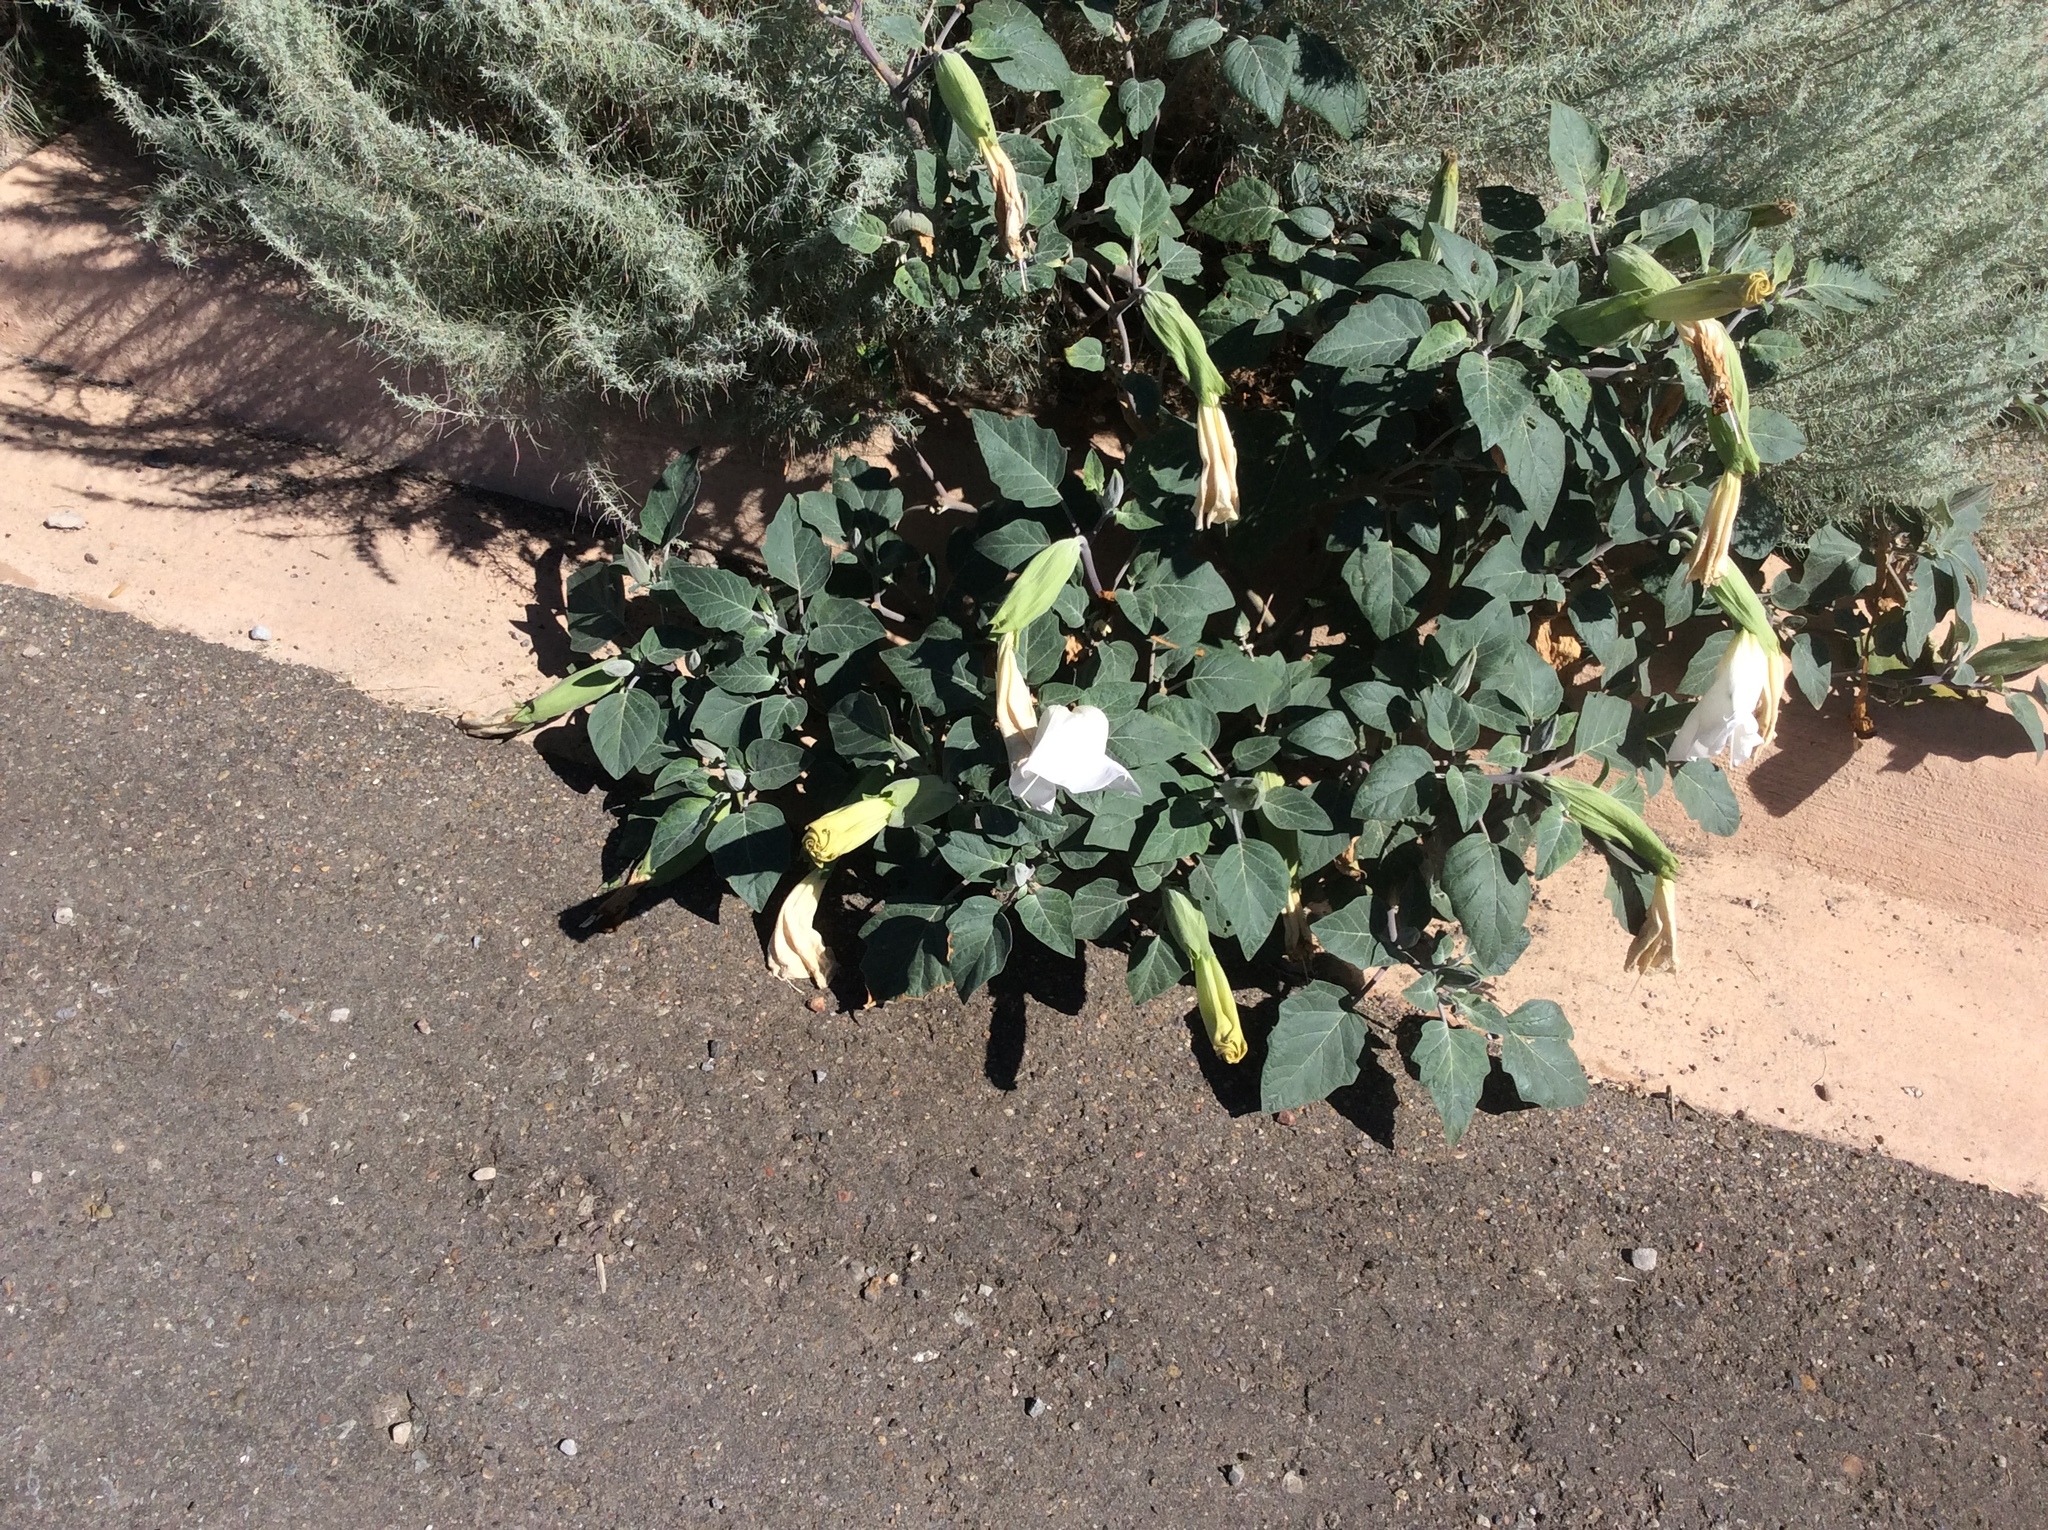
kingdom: Plantae
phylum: Tracheophyta
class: Magnoliopsida
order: Solanales
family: Solanaceae
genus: Datura
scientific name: Datura wrightii
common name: Sacred thorn-apple
